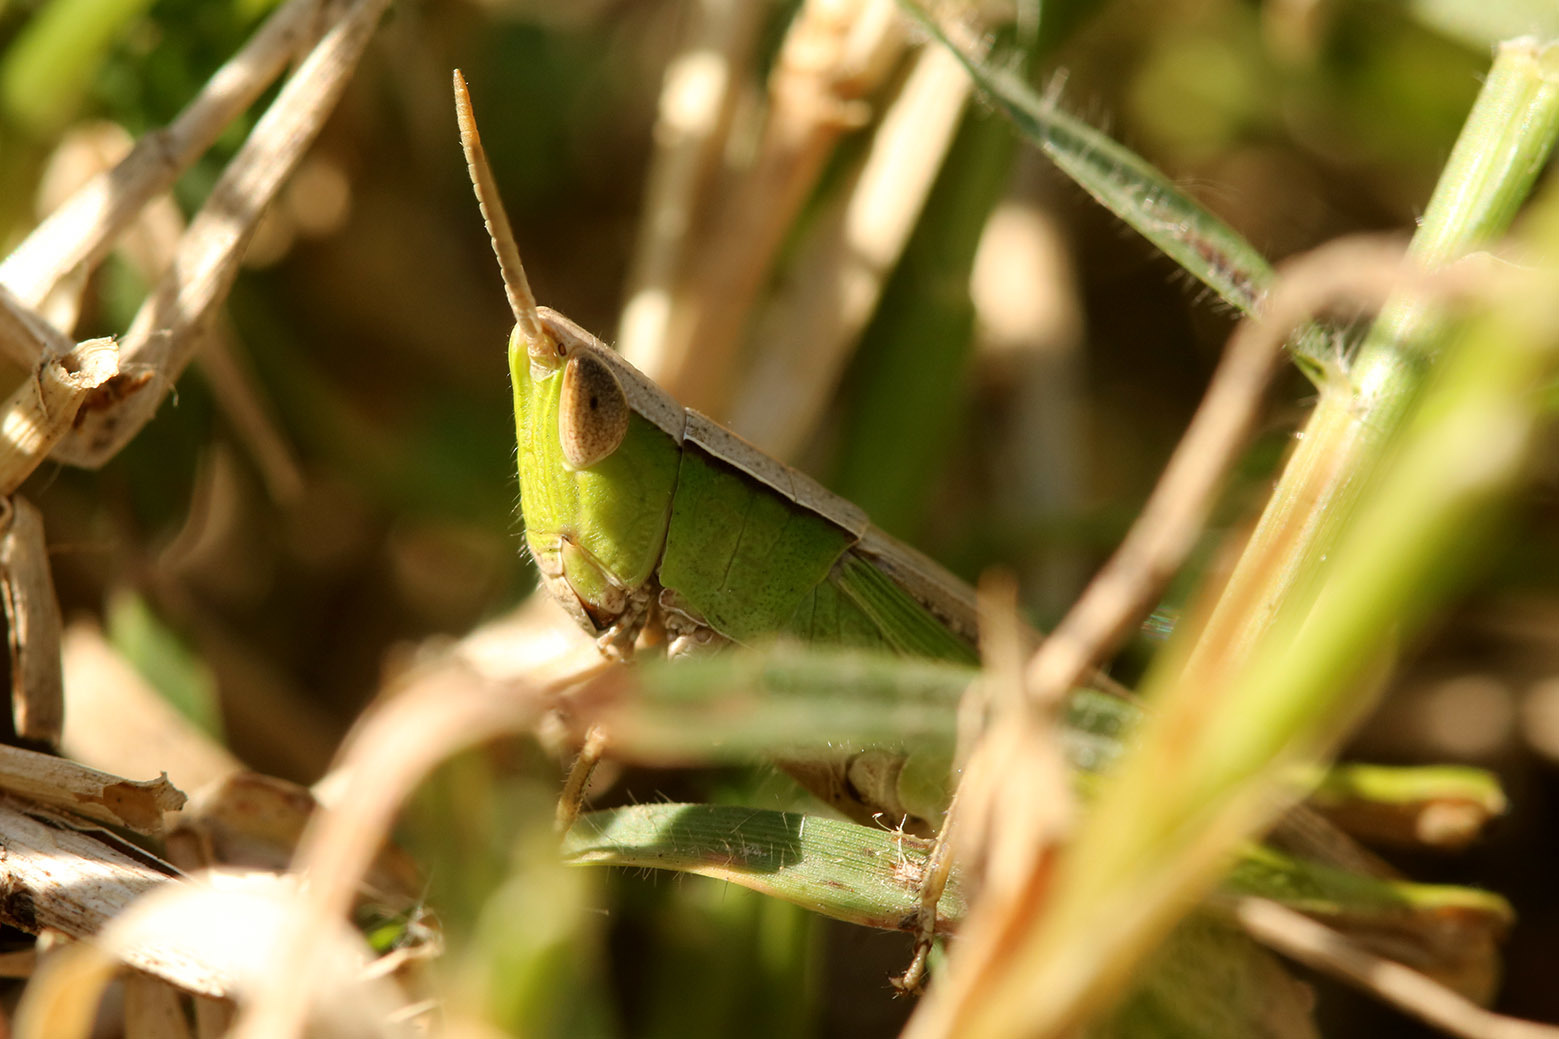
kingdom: Animalia
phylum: Arthropoda
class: Insecta
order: Orthoptera
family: Acrididae
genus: Laplatacris
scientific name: Laplatacris dispar
